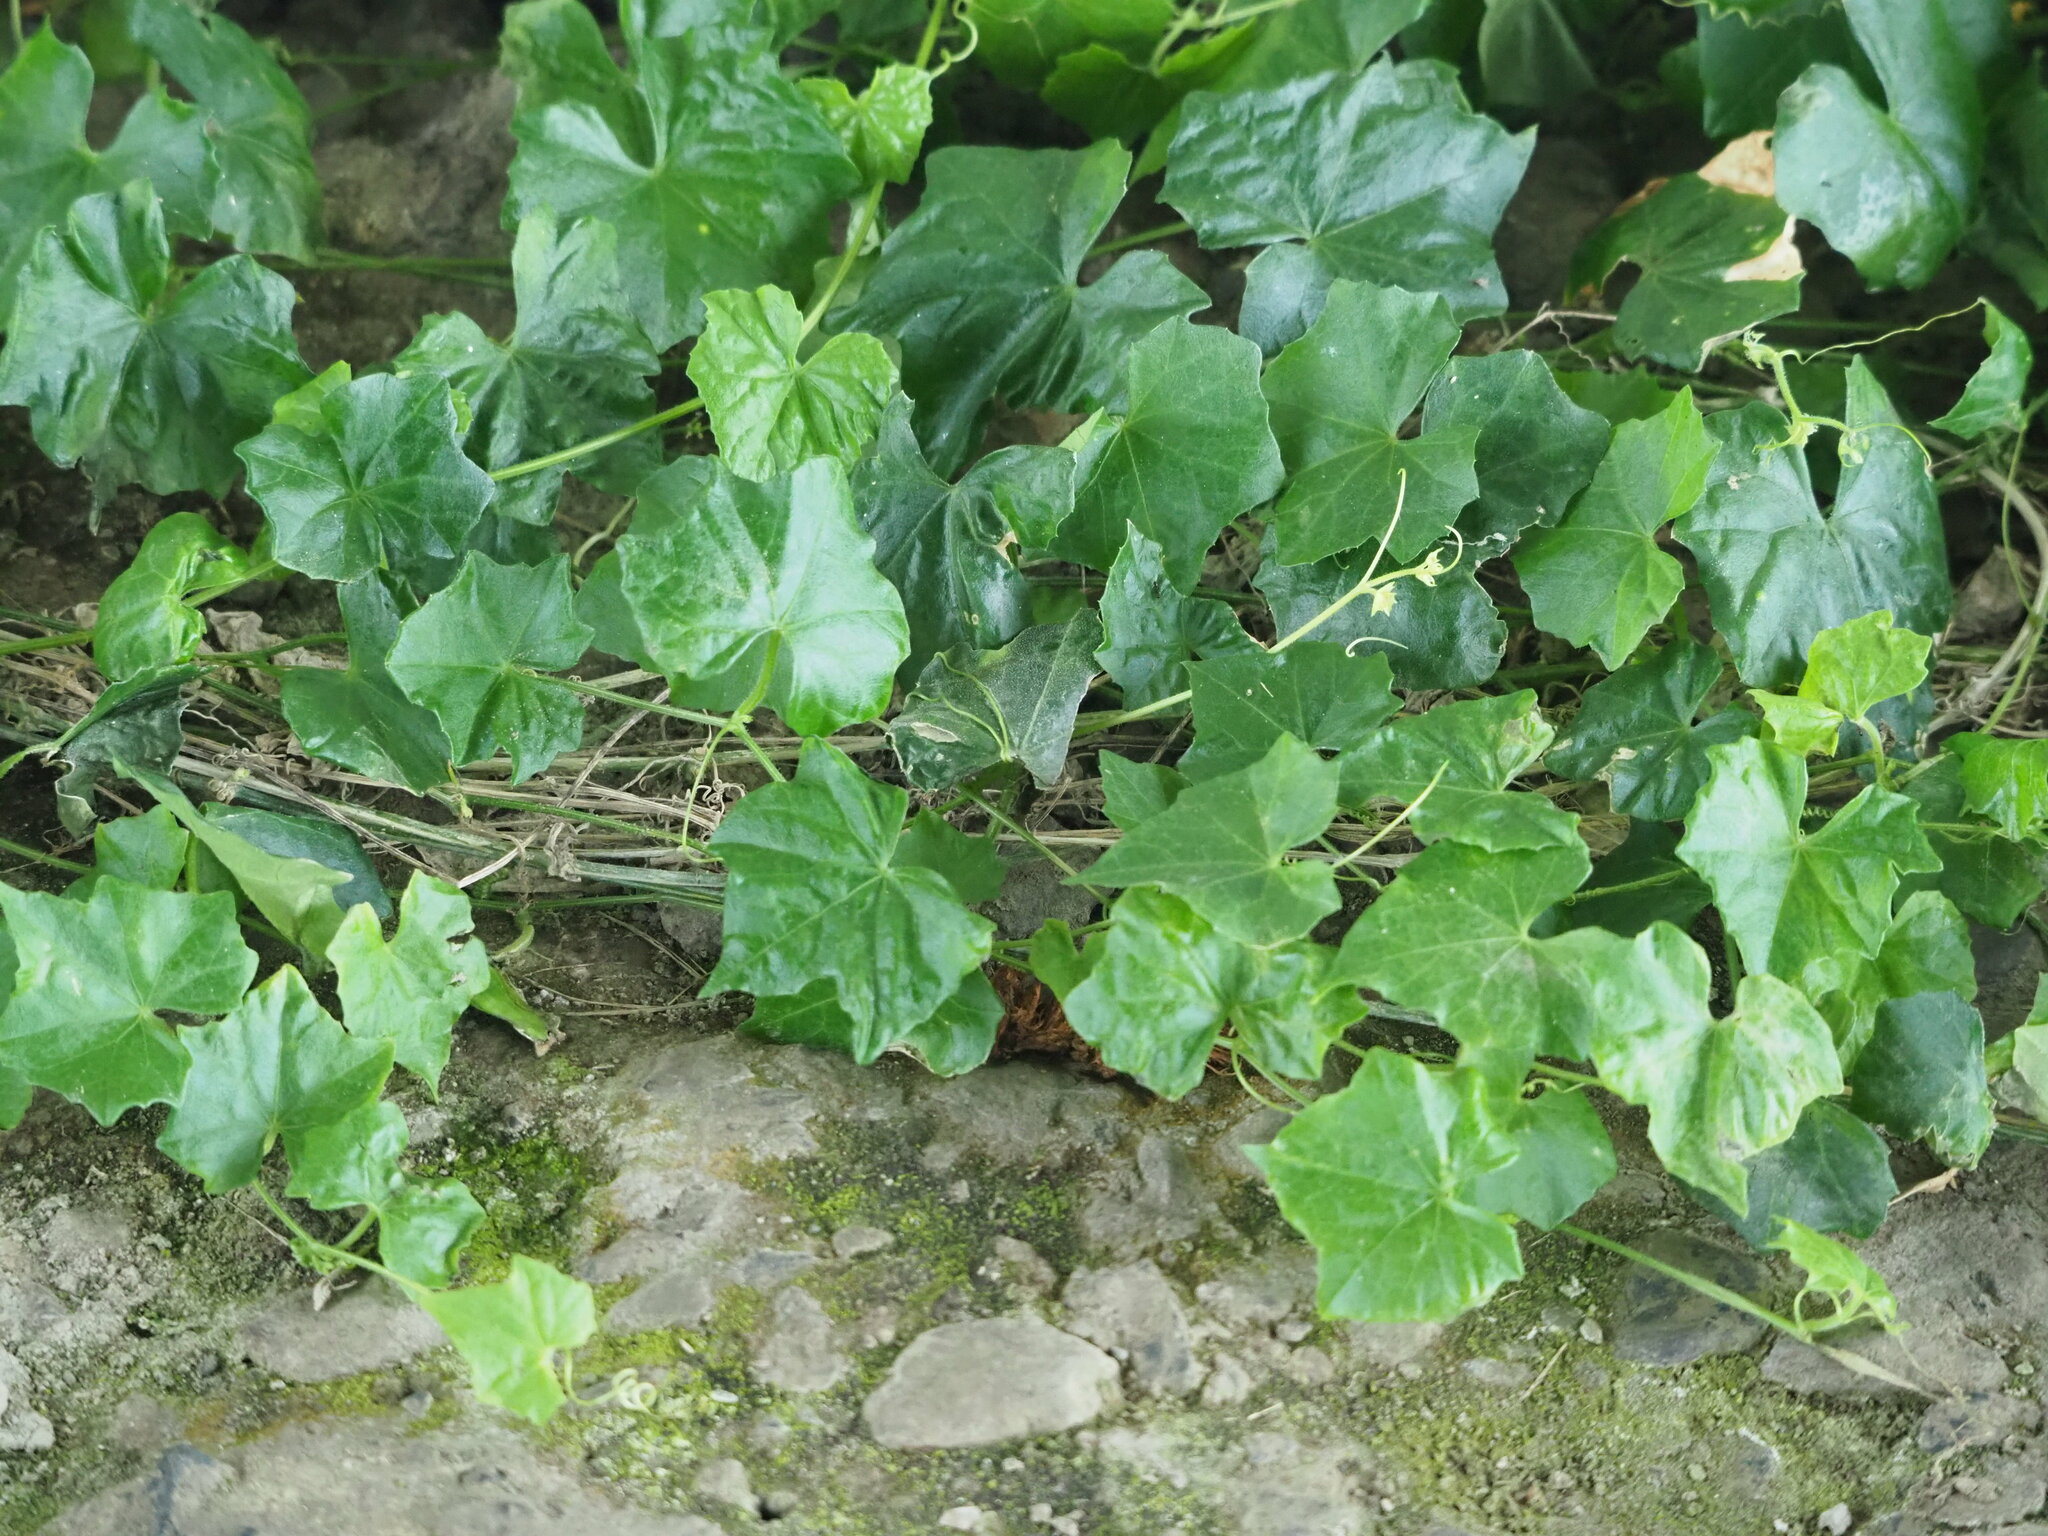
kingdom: Plantae
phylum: Tracheophyta
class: Magnoliopsida
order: Cucurbitales
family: Cucurbitaceae
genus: Melothria
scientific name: Melothria pendula
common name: Creeping-cucumber
